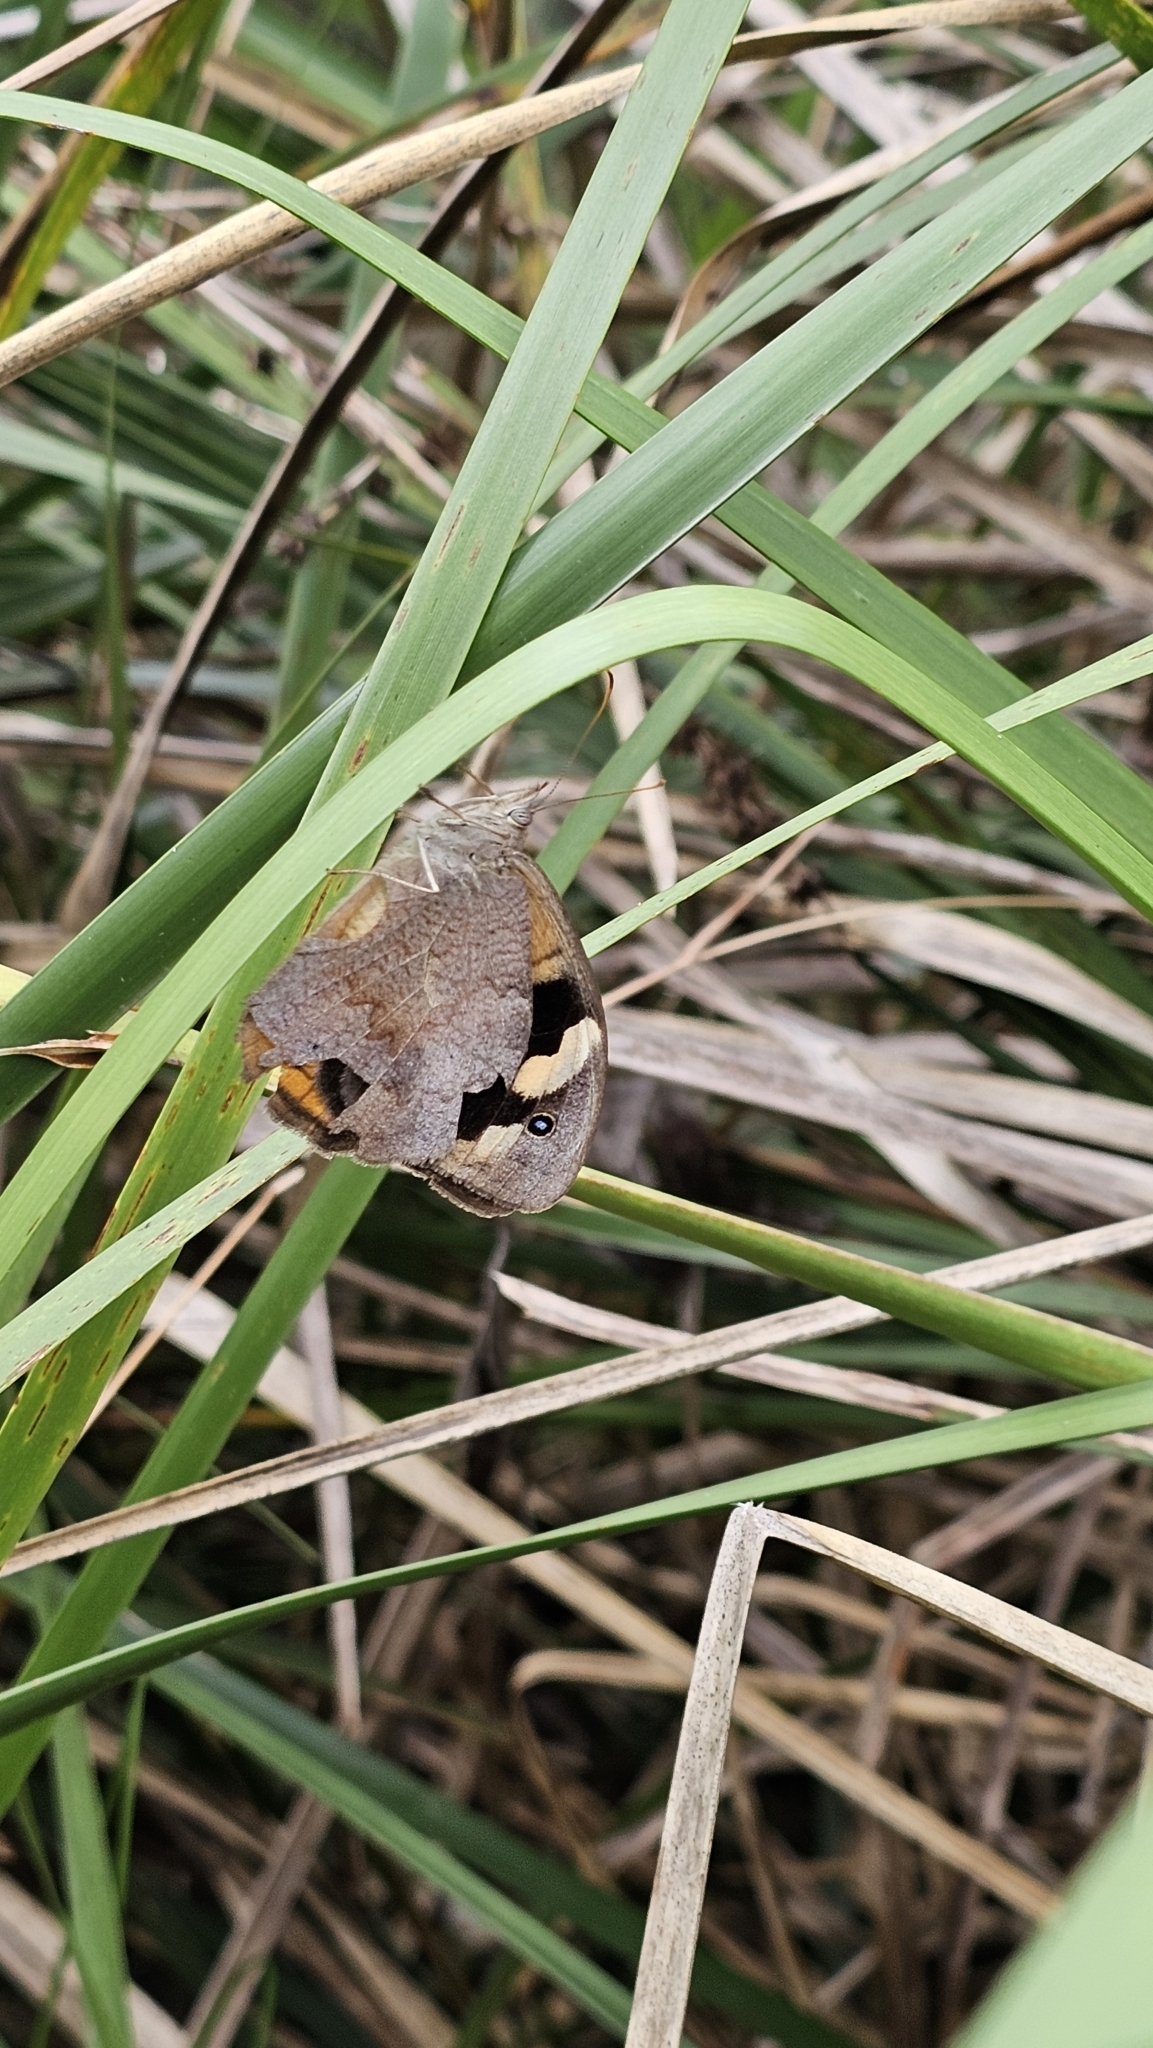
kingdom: Animalia
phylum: Arthropoda
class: Insecta
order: Lepidoptera
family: Nymphalidae
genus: Heteronympha
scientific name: Heteronympha merope
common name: Common brown
